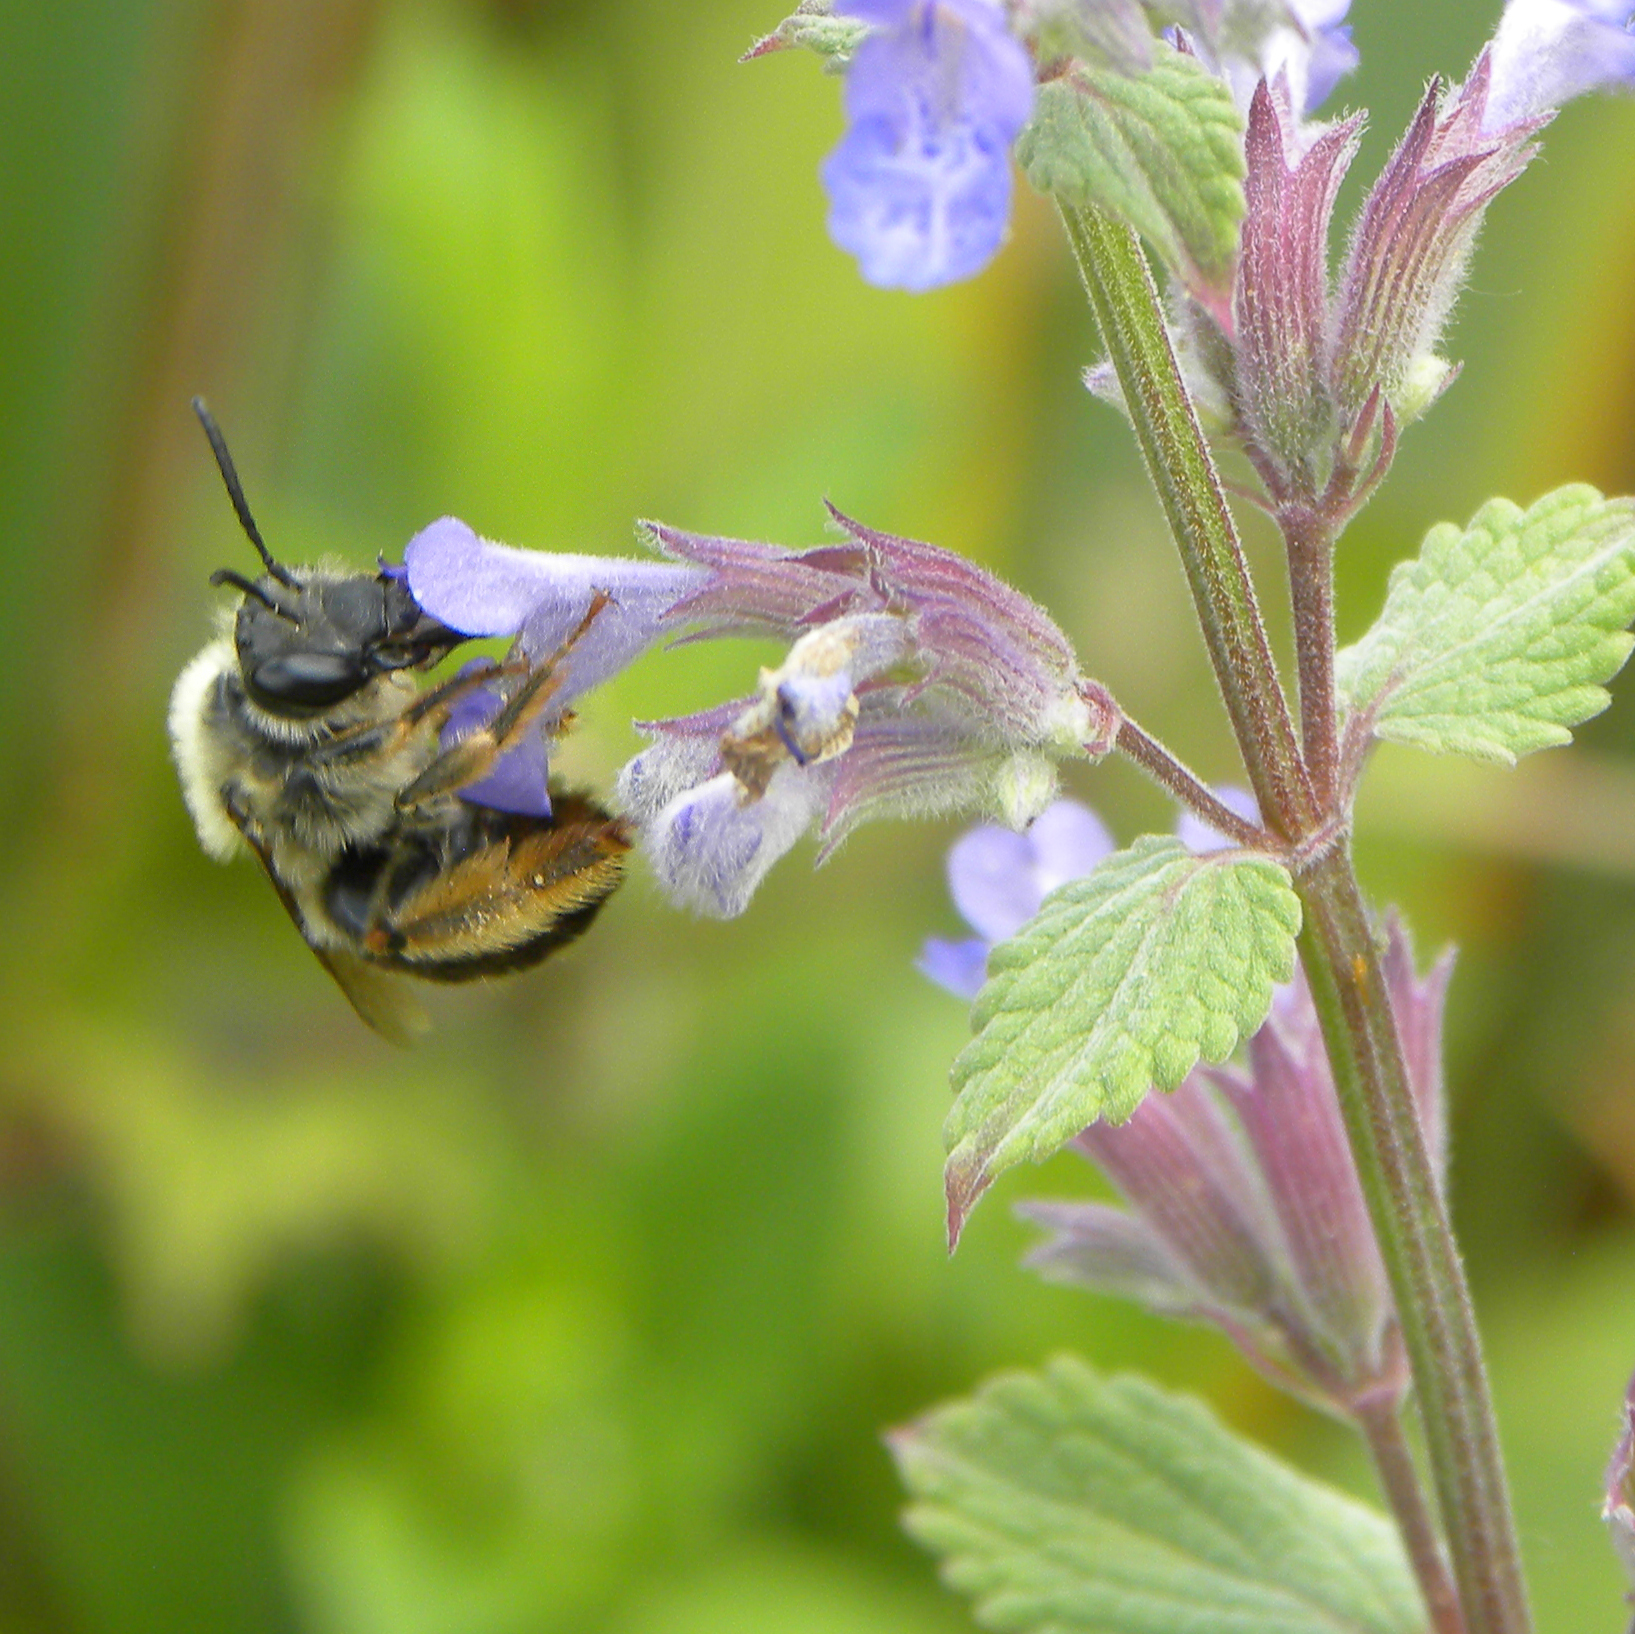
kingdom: Animalia
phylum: Arthropoda
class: Insecta
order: Hymenoptera
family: Apidae
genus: Synhalonia
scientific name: Synhalonia
